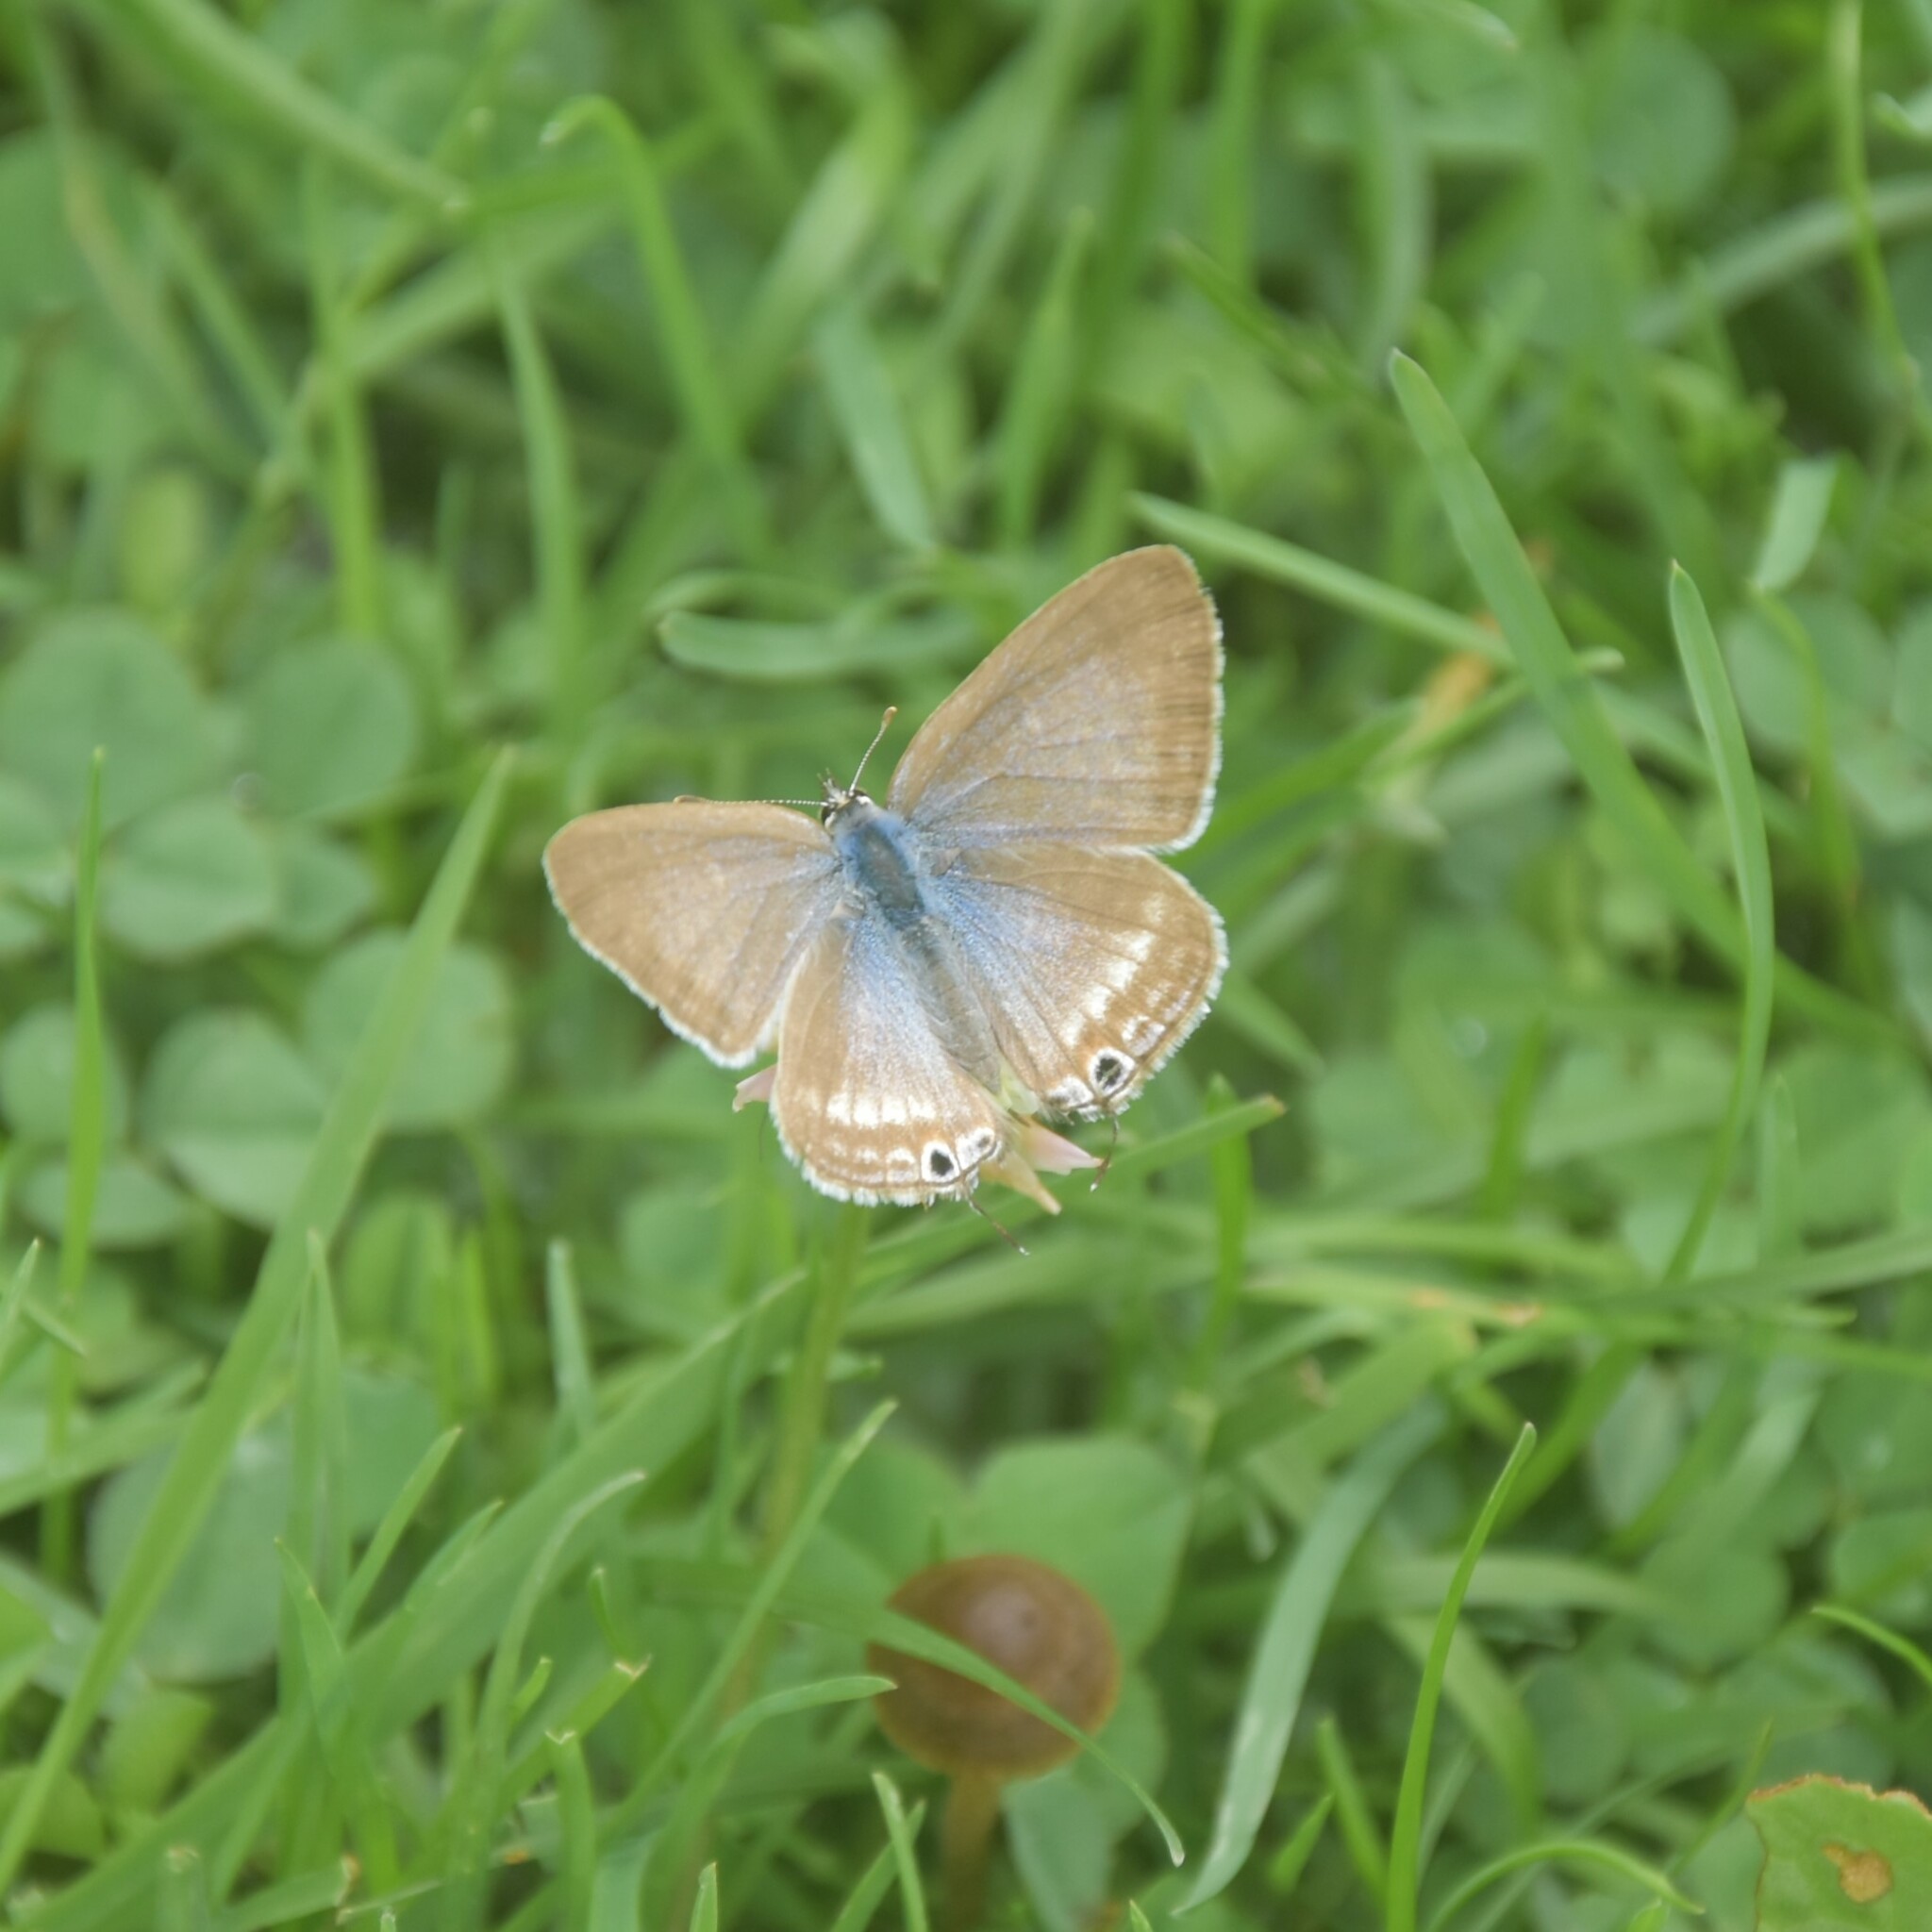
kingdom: Animalia
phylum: Arthropoda
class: Insecta
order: Lepidoptera
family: Lycaenidae
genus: Lampides
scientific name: Lampides boeticus
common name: Long-tailed blue
